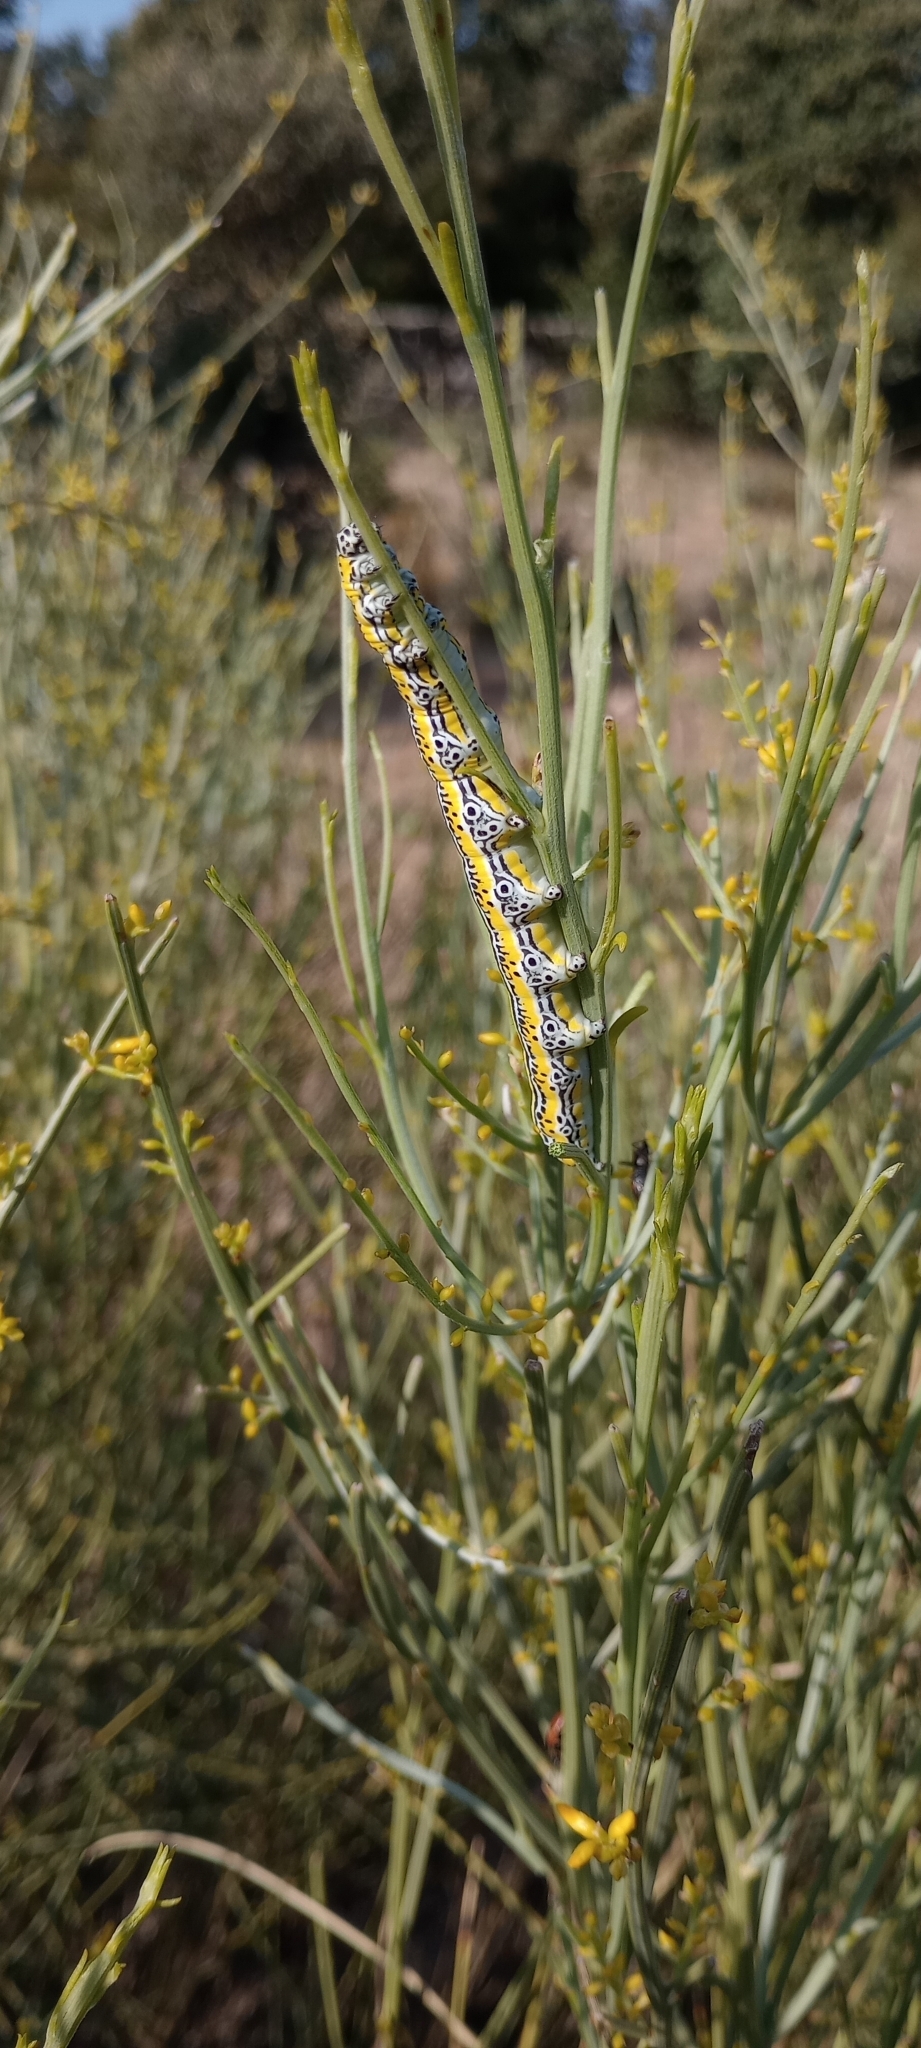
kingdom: Animalia
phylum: Arthropoda
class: Insecta
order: Lepidoptera
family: Erebidae
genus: Apopestes
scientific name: Apopestes spectrum
